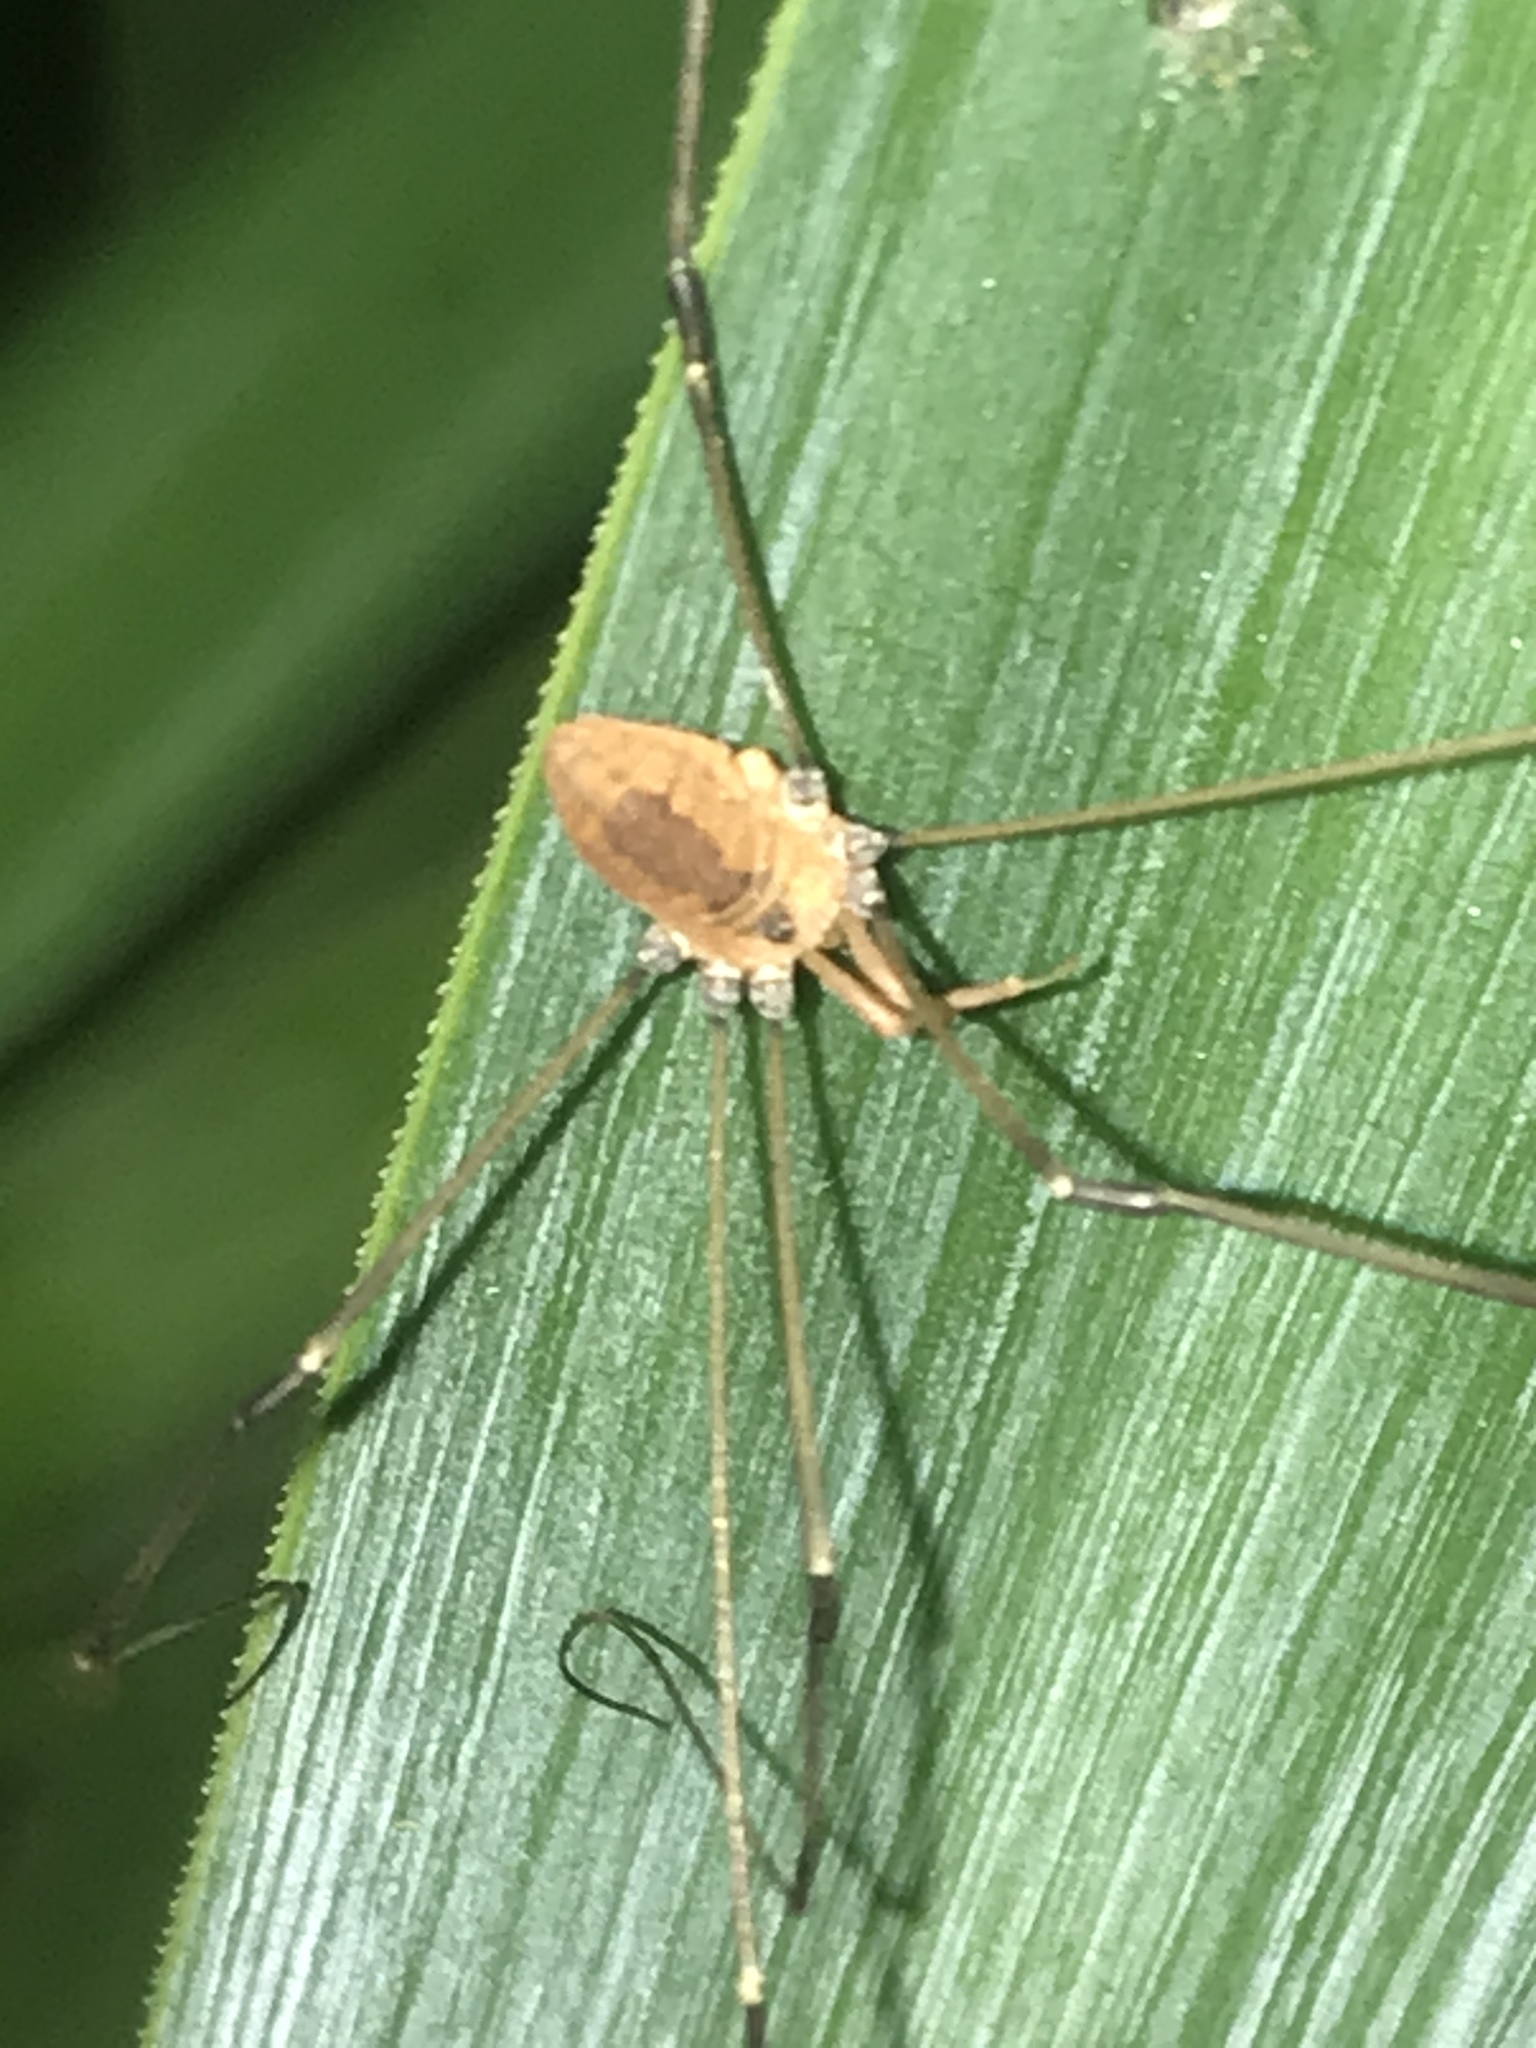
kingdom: Animalia
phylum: Arthropoda
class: Arachnida
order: Opiliones
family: Sclerosomatidae
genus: Leiobunum
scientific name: Leiobunum vittatum
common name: Eastern harvestman
